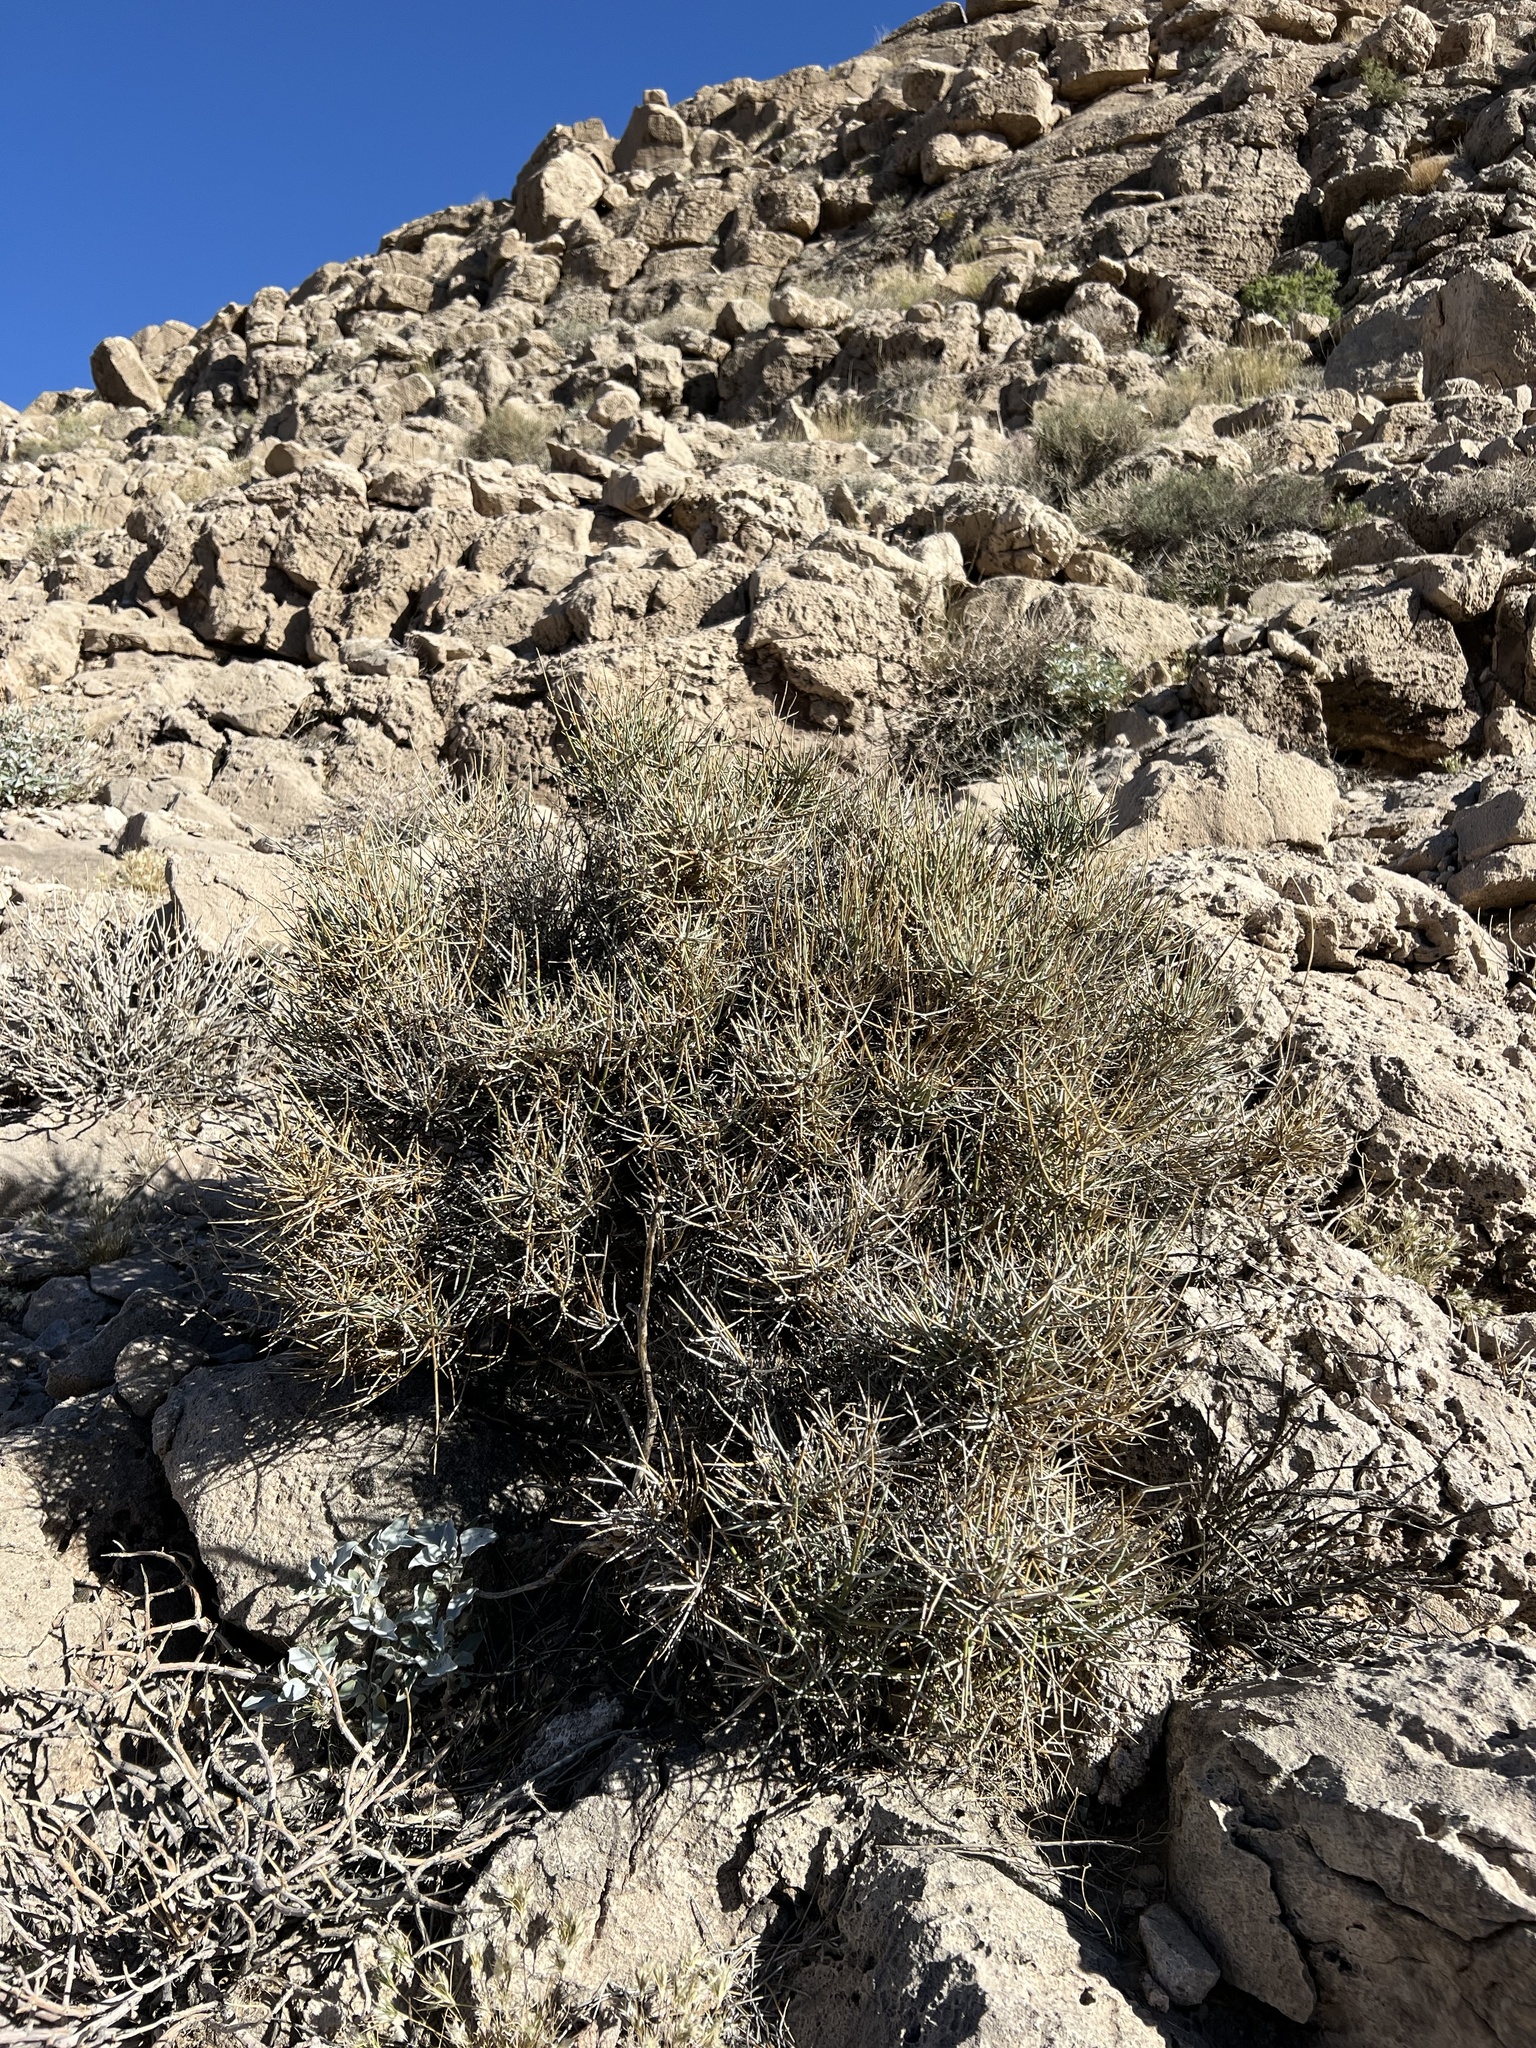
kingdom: Plantae
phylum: Tracheophyta
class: Gnetopsida
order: Ephedrales
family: Ephedraceae
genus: Ephedra
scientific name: Ephedra nevadensis
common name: Gray ephedra
